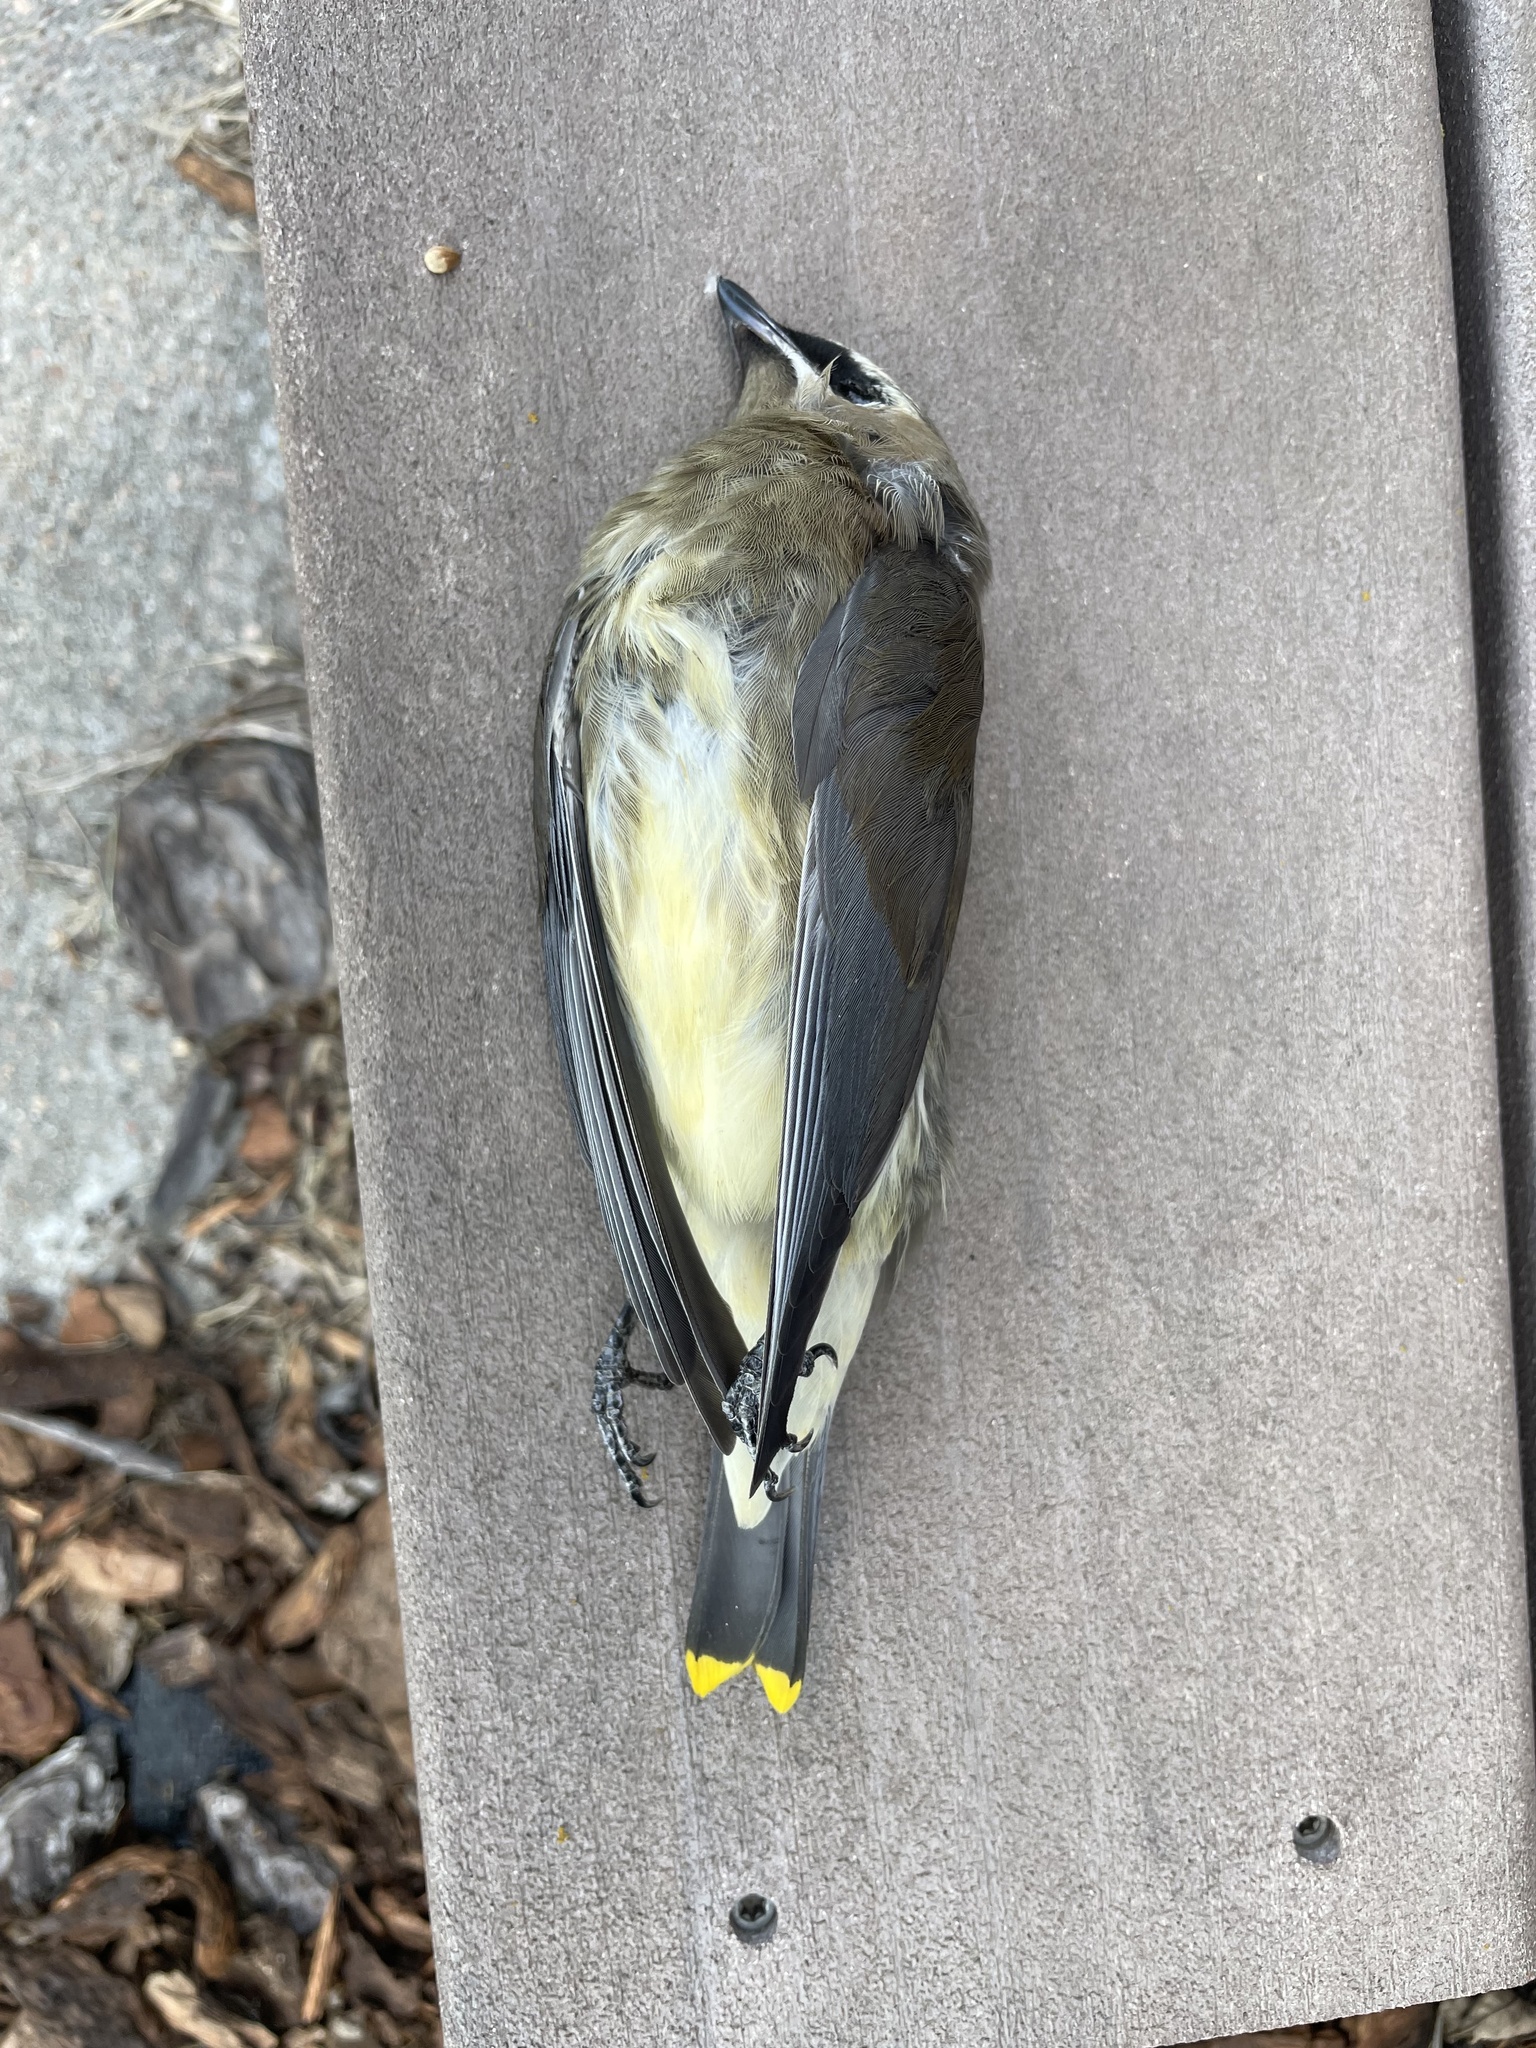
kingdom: Animalia
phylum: Chordata
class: Aves
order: Passeriformes
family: Bombycillidae
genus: Bombycilla
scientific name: Bombycilla cedrorum
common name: Cedar waxwing
